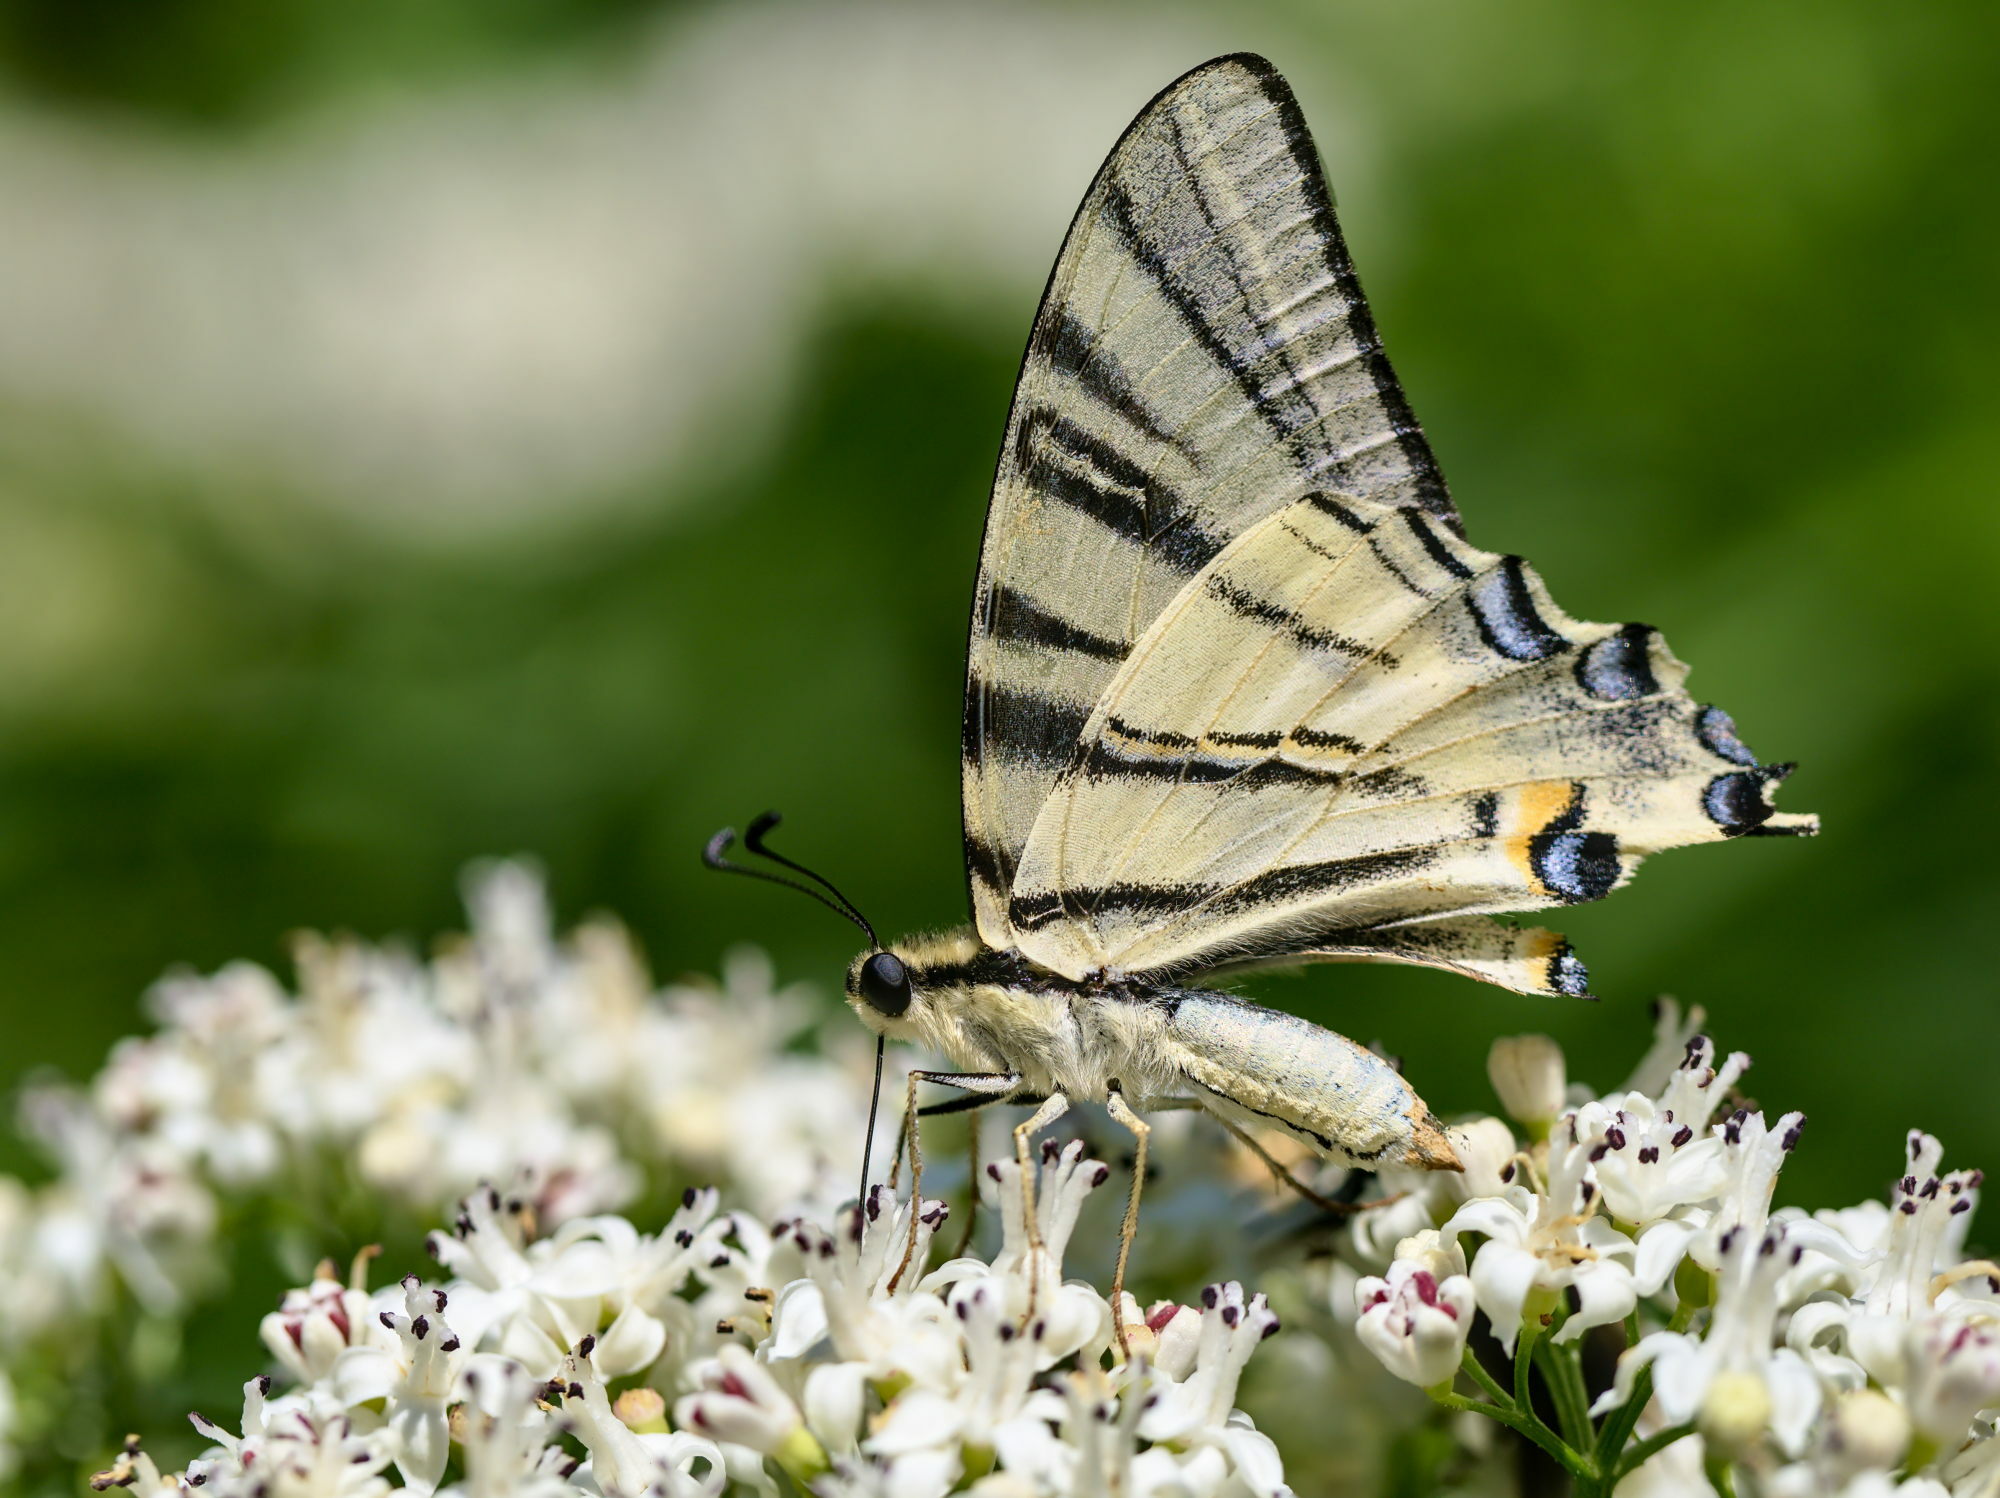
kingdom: Animalia
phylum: Arthropoda
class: Insecta
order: Lepidoptera
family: Papilionidae
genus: Iphiclides
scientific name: Iphiclides podalirius
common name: Scarce swallowtail
